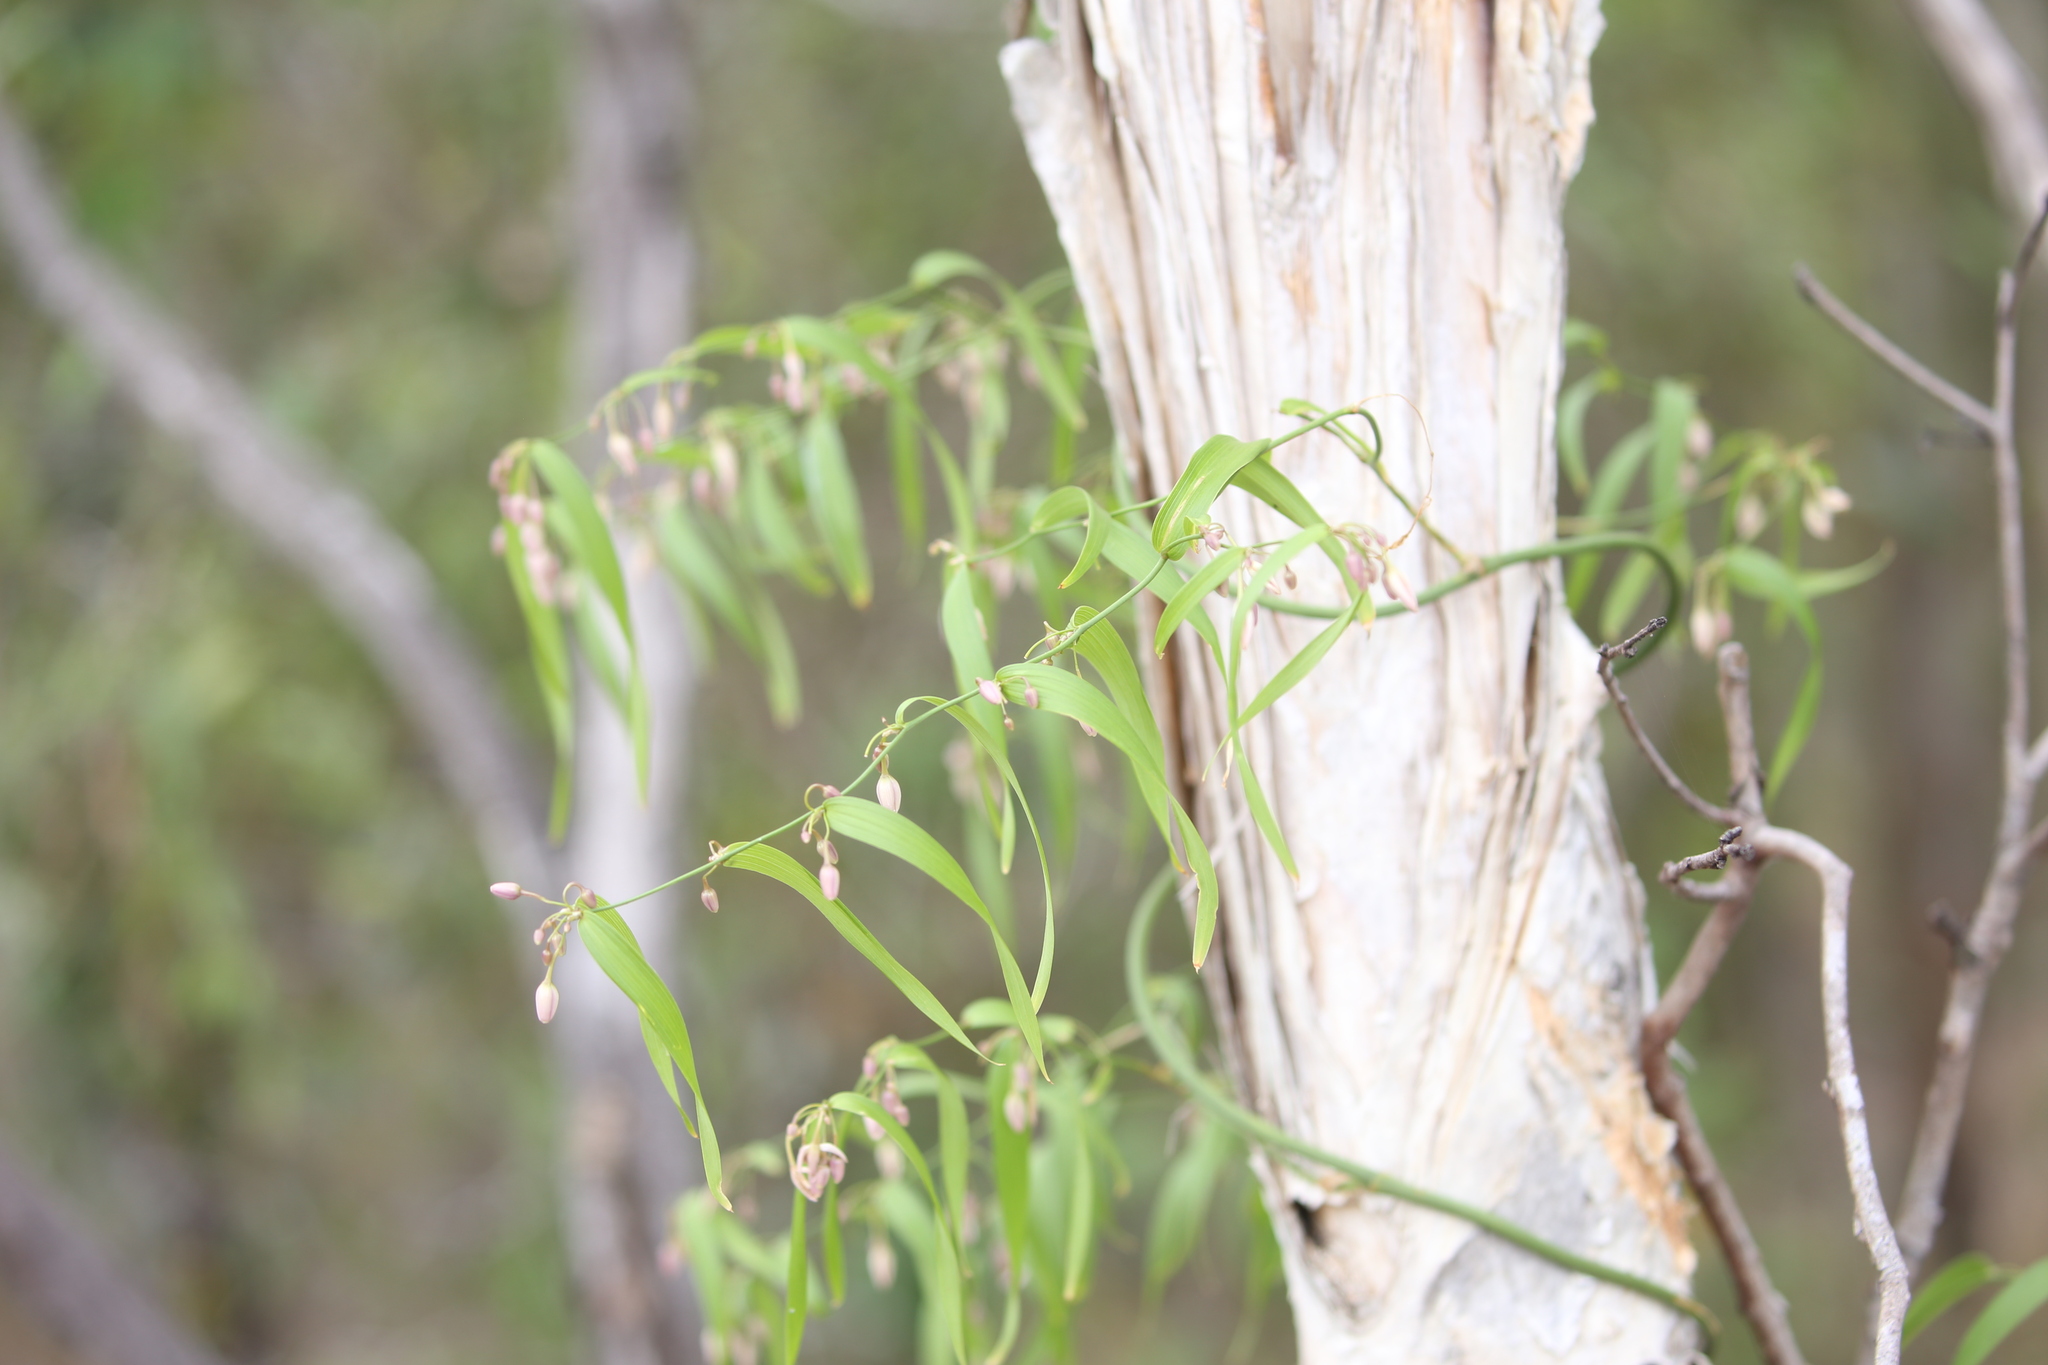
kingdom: Plantae
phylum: Tracheophyta
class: Liliopsida
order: Asparagales
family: Asparagaceae
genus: Eustrephus
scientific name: Eustrephus latifolius
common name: Orangevine
